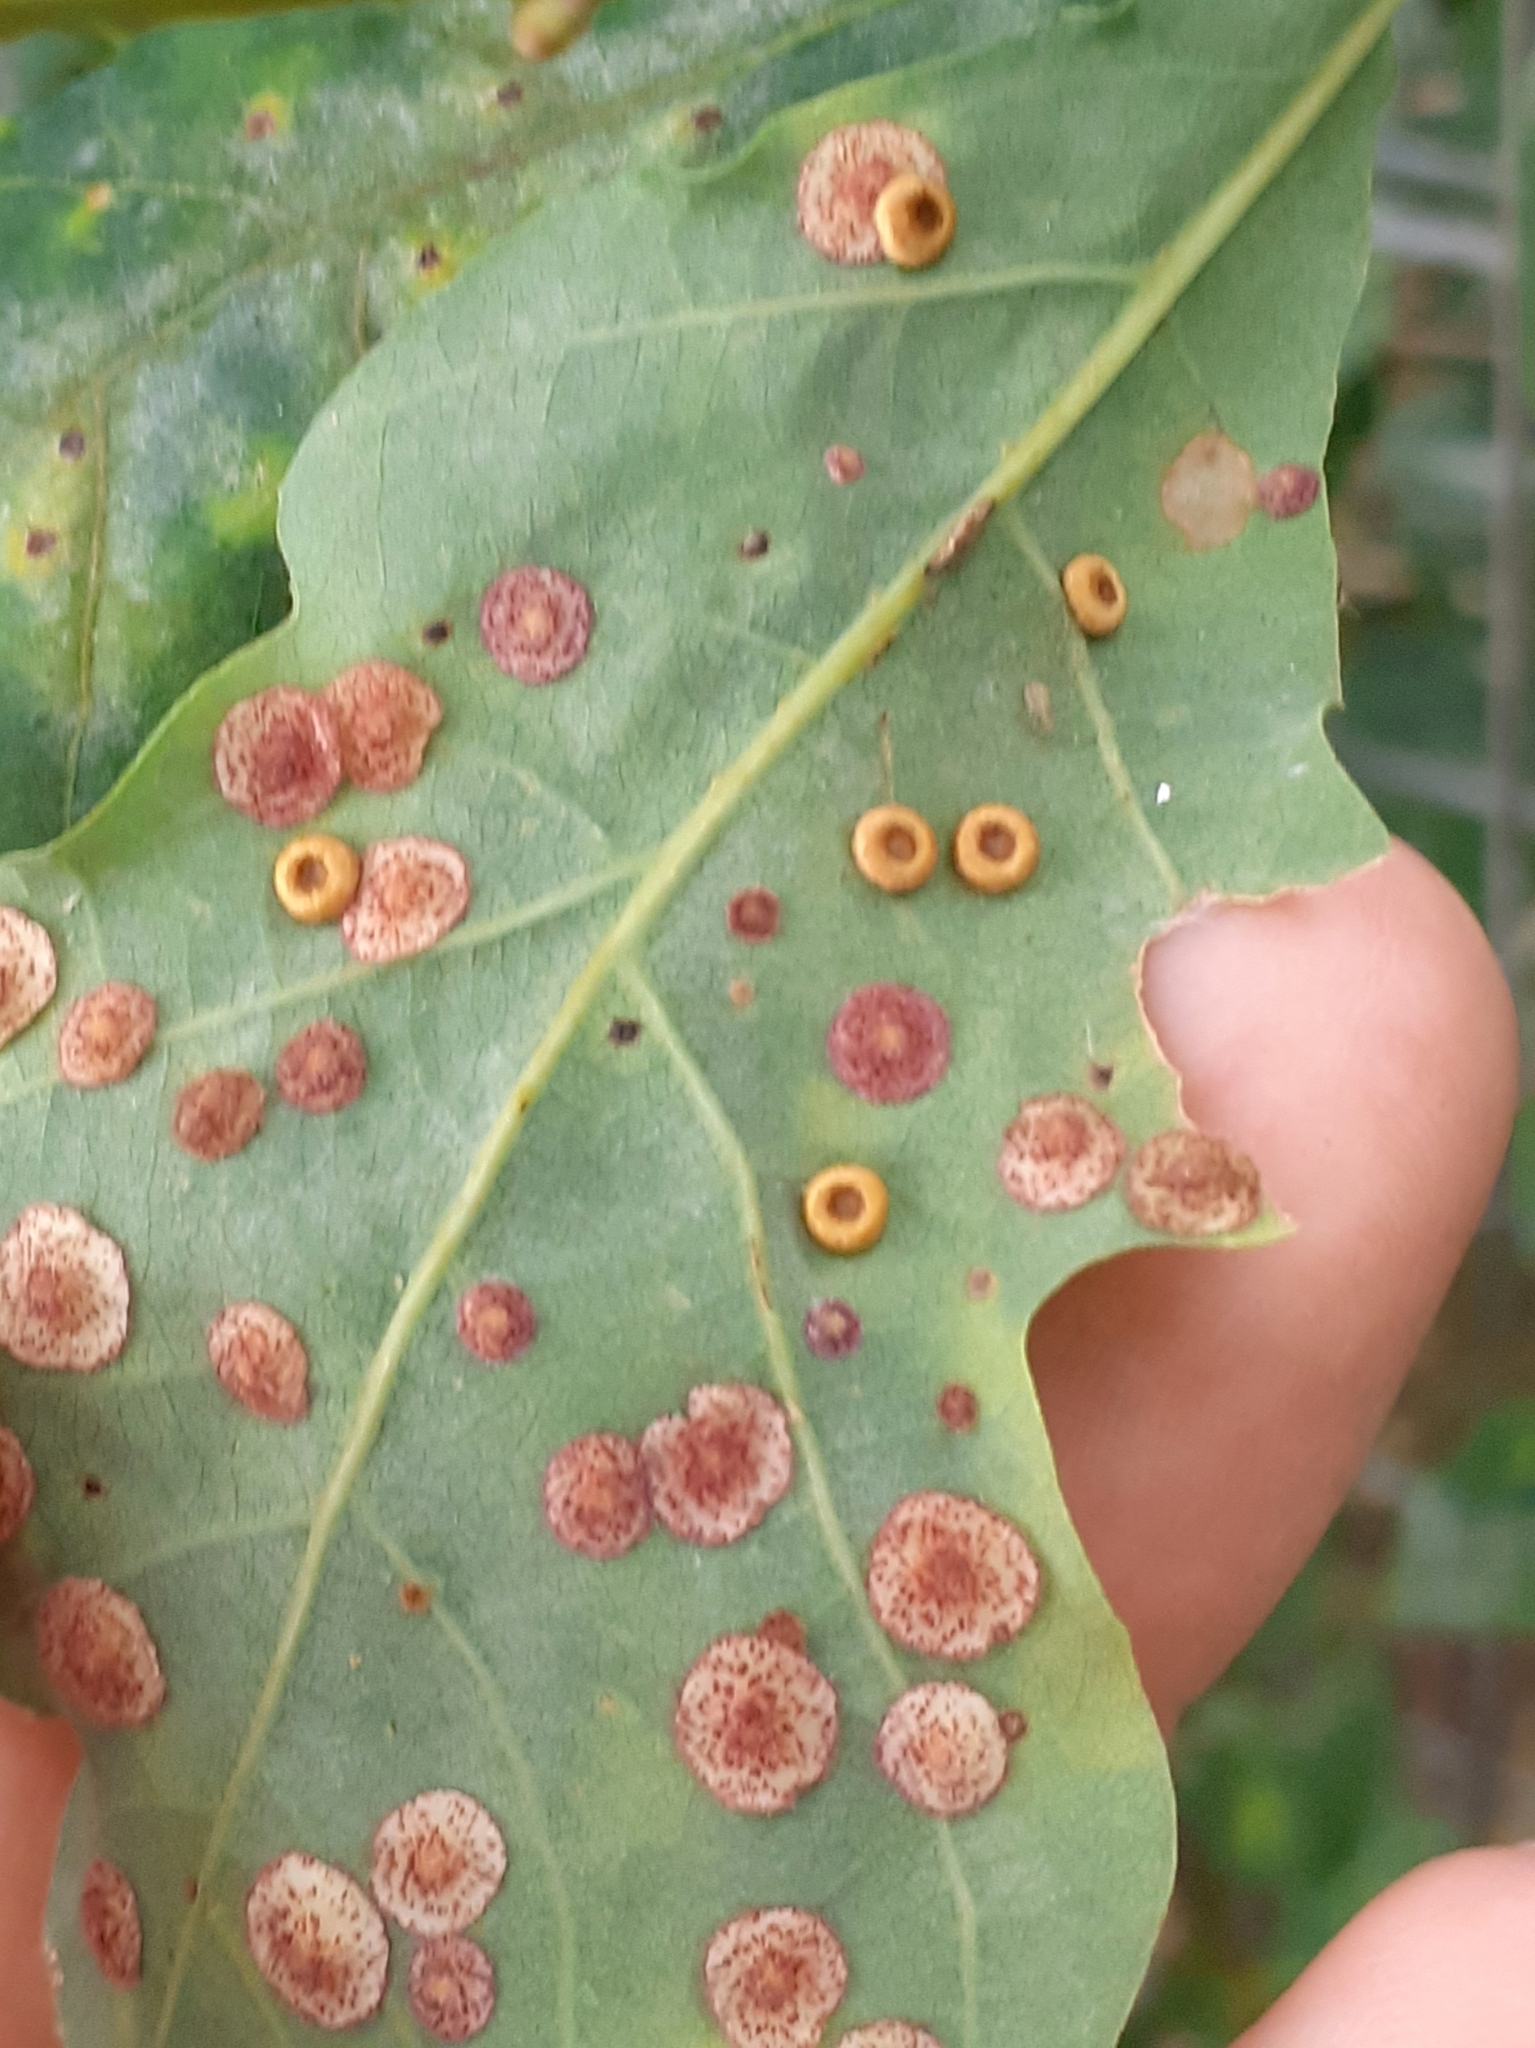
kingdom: Animalia
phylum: Arthropoda
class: Insecta
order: Hymenoptera
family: Cynipidae
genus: Neuroterus
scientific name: Neuroterus numismalis
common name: Silk-button spangle gall
